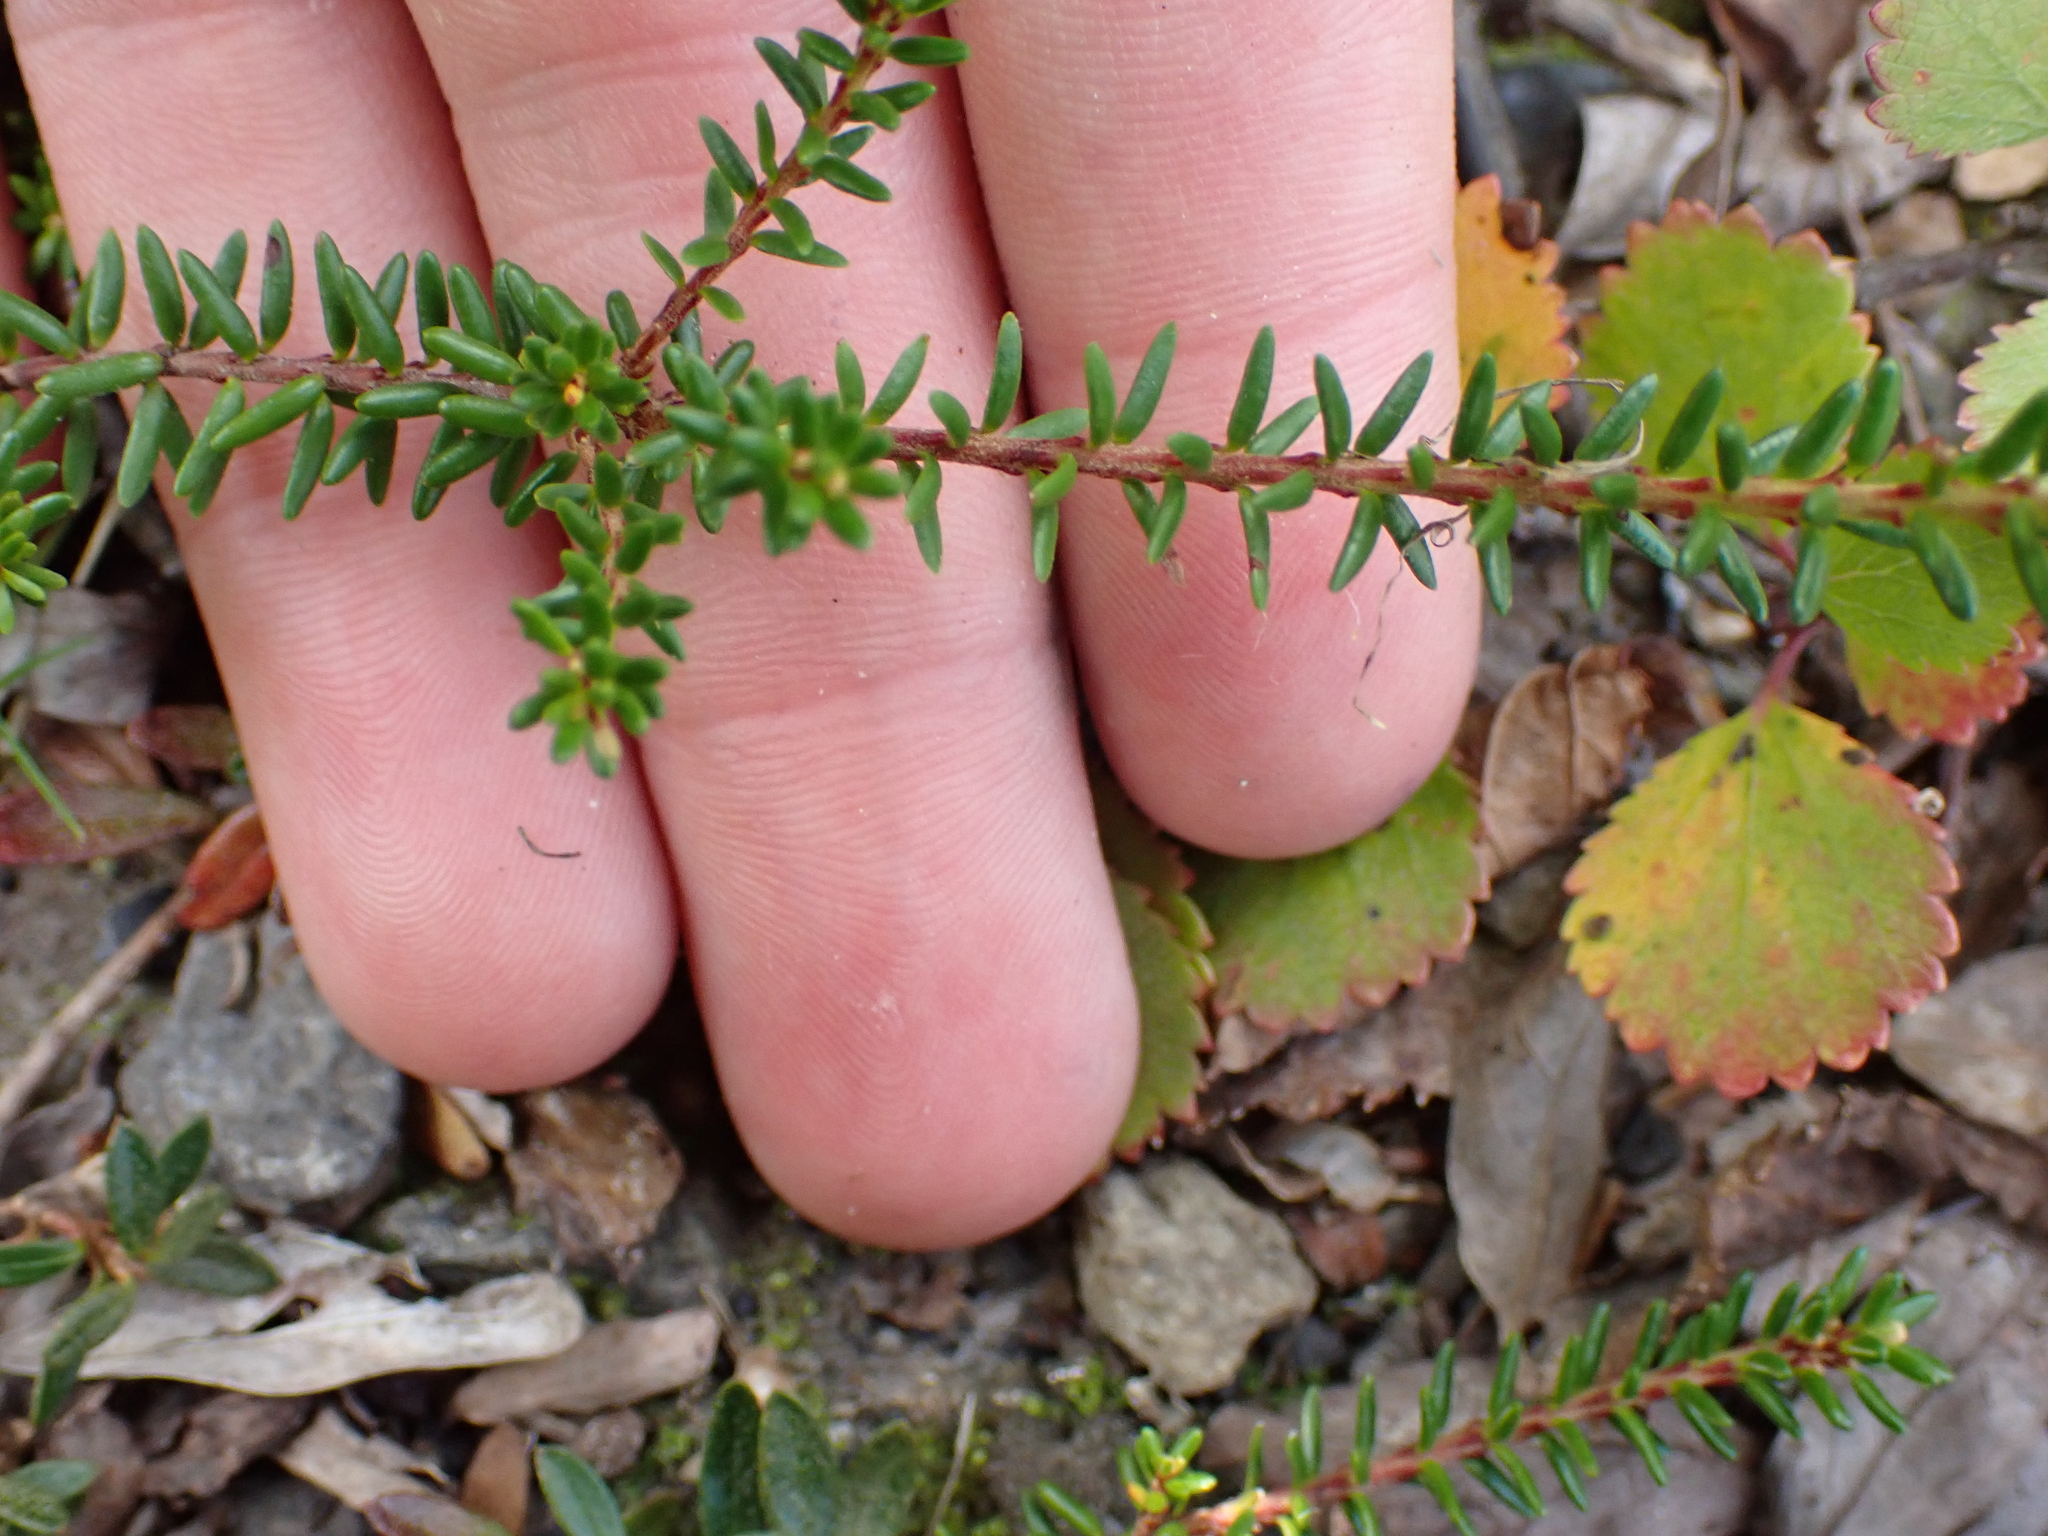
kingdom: Plantae
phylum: Tracheophyta
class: Magnoliopsida
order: Ericales
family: Ericaceae
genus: Empetrum
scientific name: Empetrum nigrum
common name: Black crowberry
